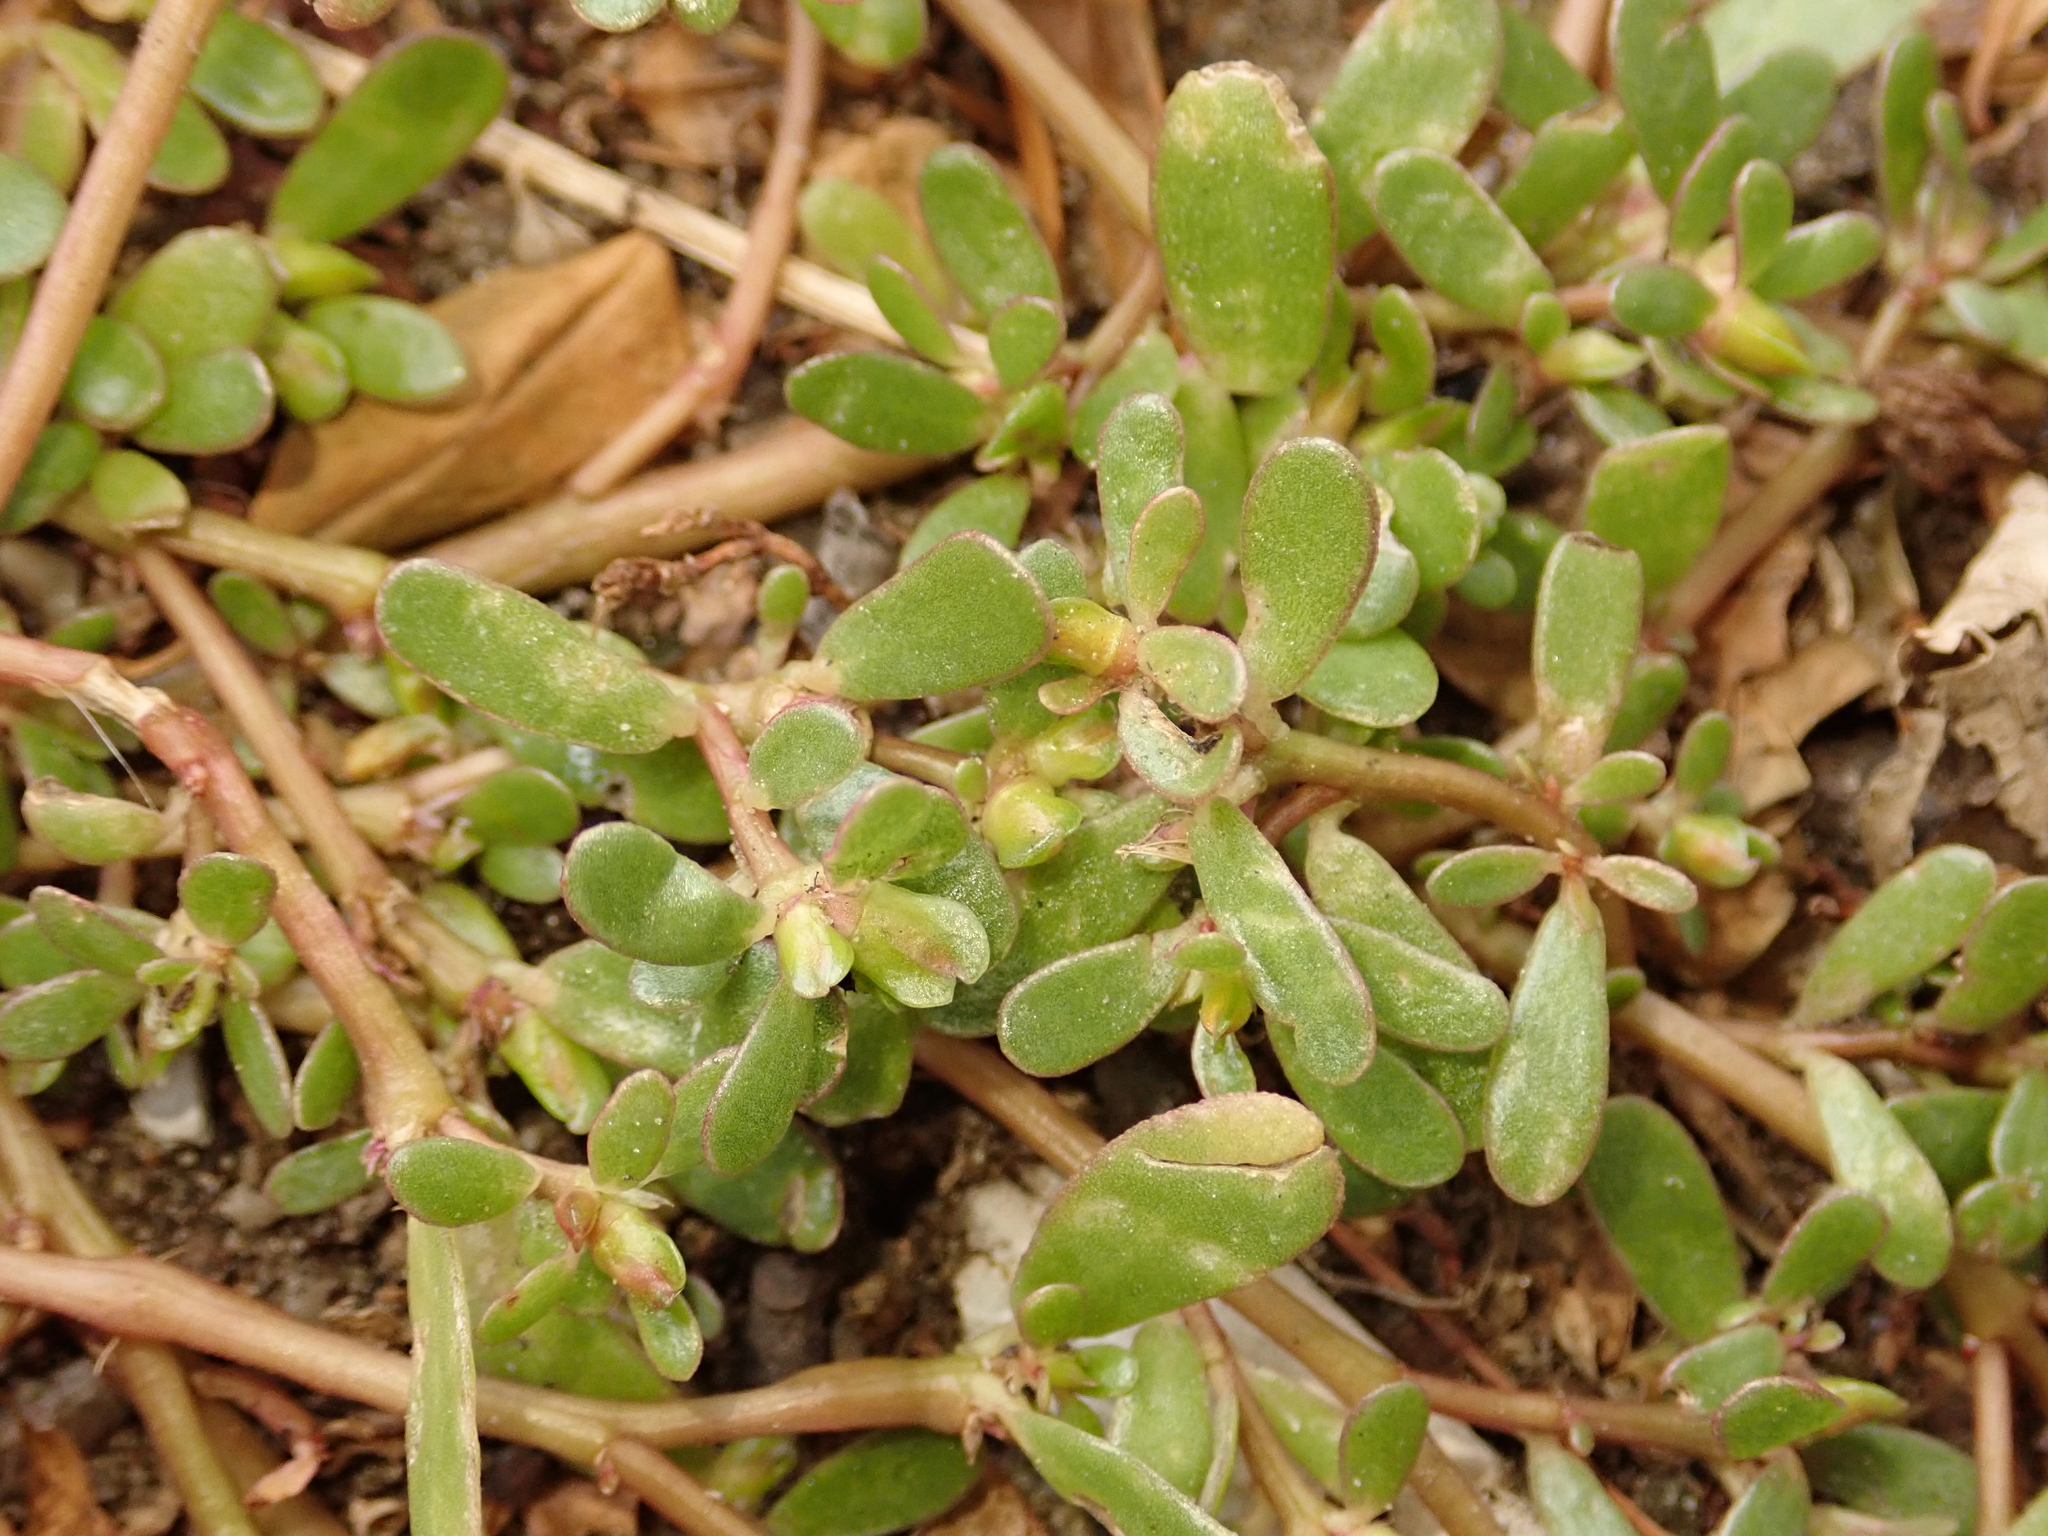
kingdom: Plantae
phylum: Tracheophyta
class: Magnoliopsida
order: Caryophyllales
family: Portulacaceae
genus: Portulaca
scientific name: Portulaca oleracea
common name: Common purslane
